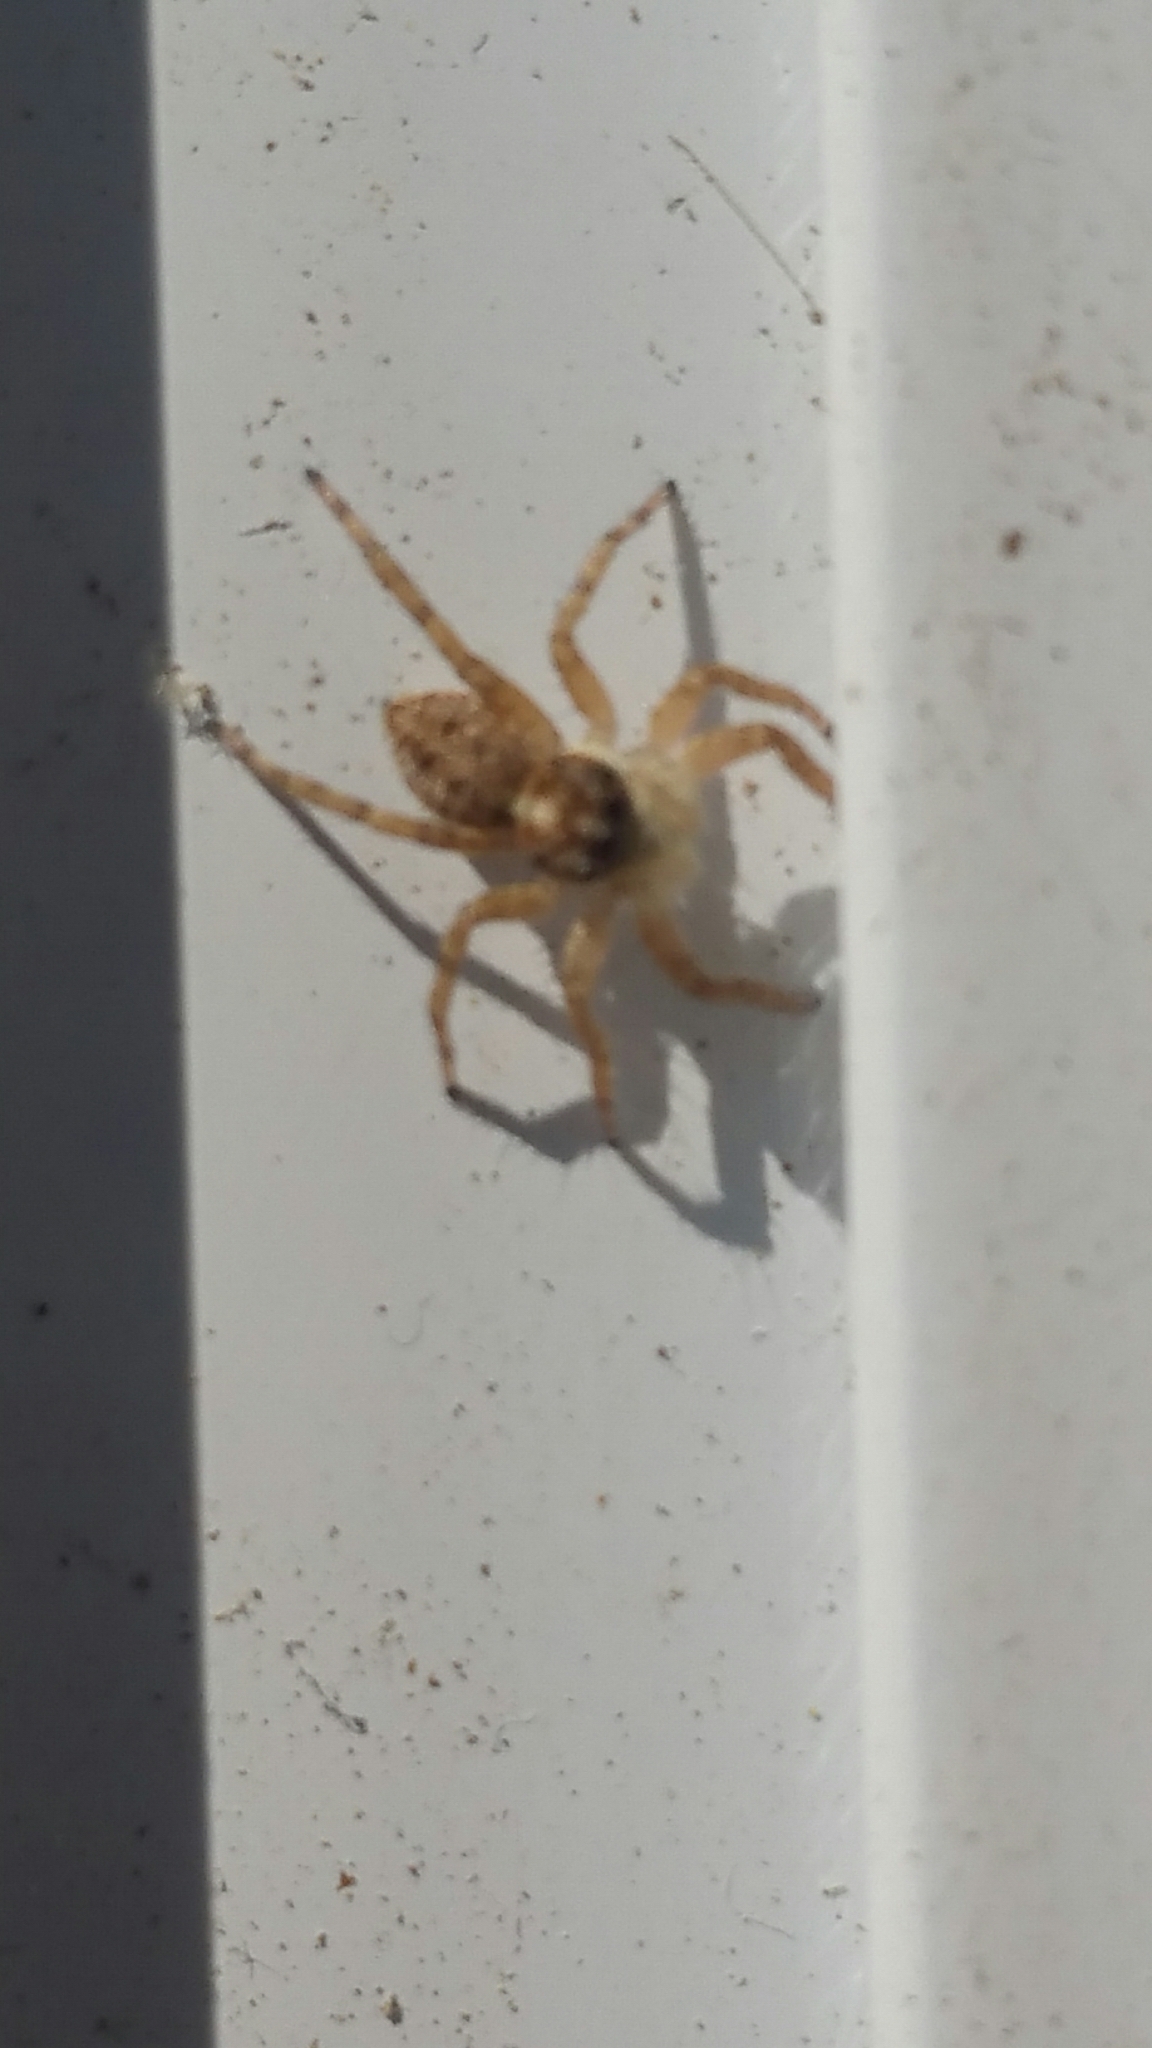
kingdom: Animalia
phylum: Arthropoda
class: Arachnida
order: Araneae
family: Salticidae
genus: Menemerus
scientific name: Menemerus semilimbatus
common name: Jumping spider
